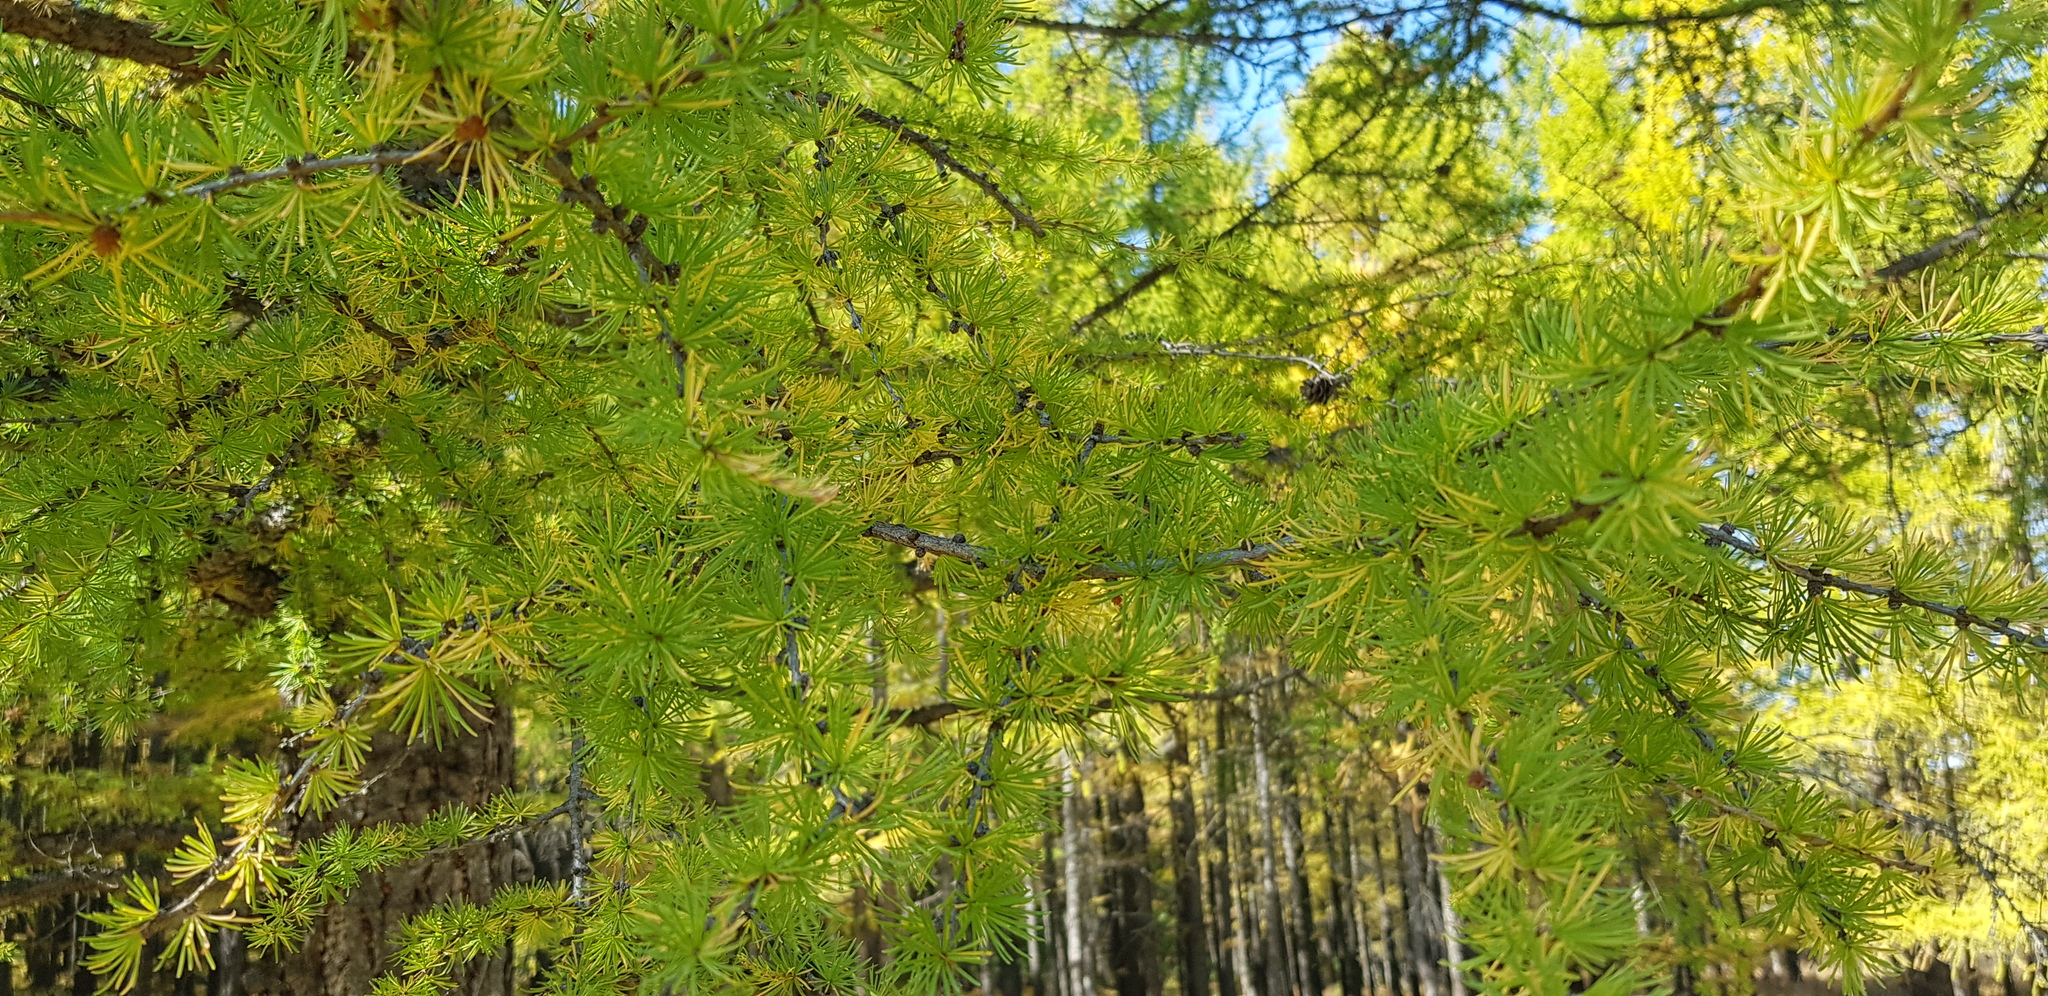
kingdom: Plantae
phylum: Tracheophyta
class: Pinopsida
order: Pinales
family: Pinaceae
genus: Larix
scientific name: Larix sibirica
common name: Siberian larch
